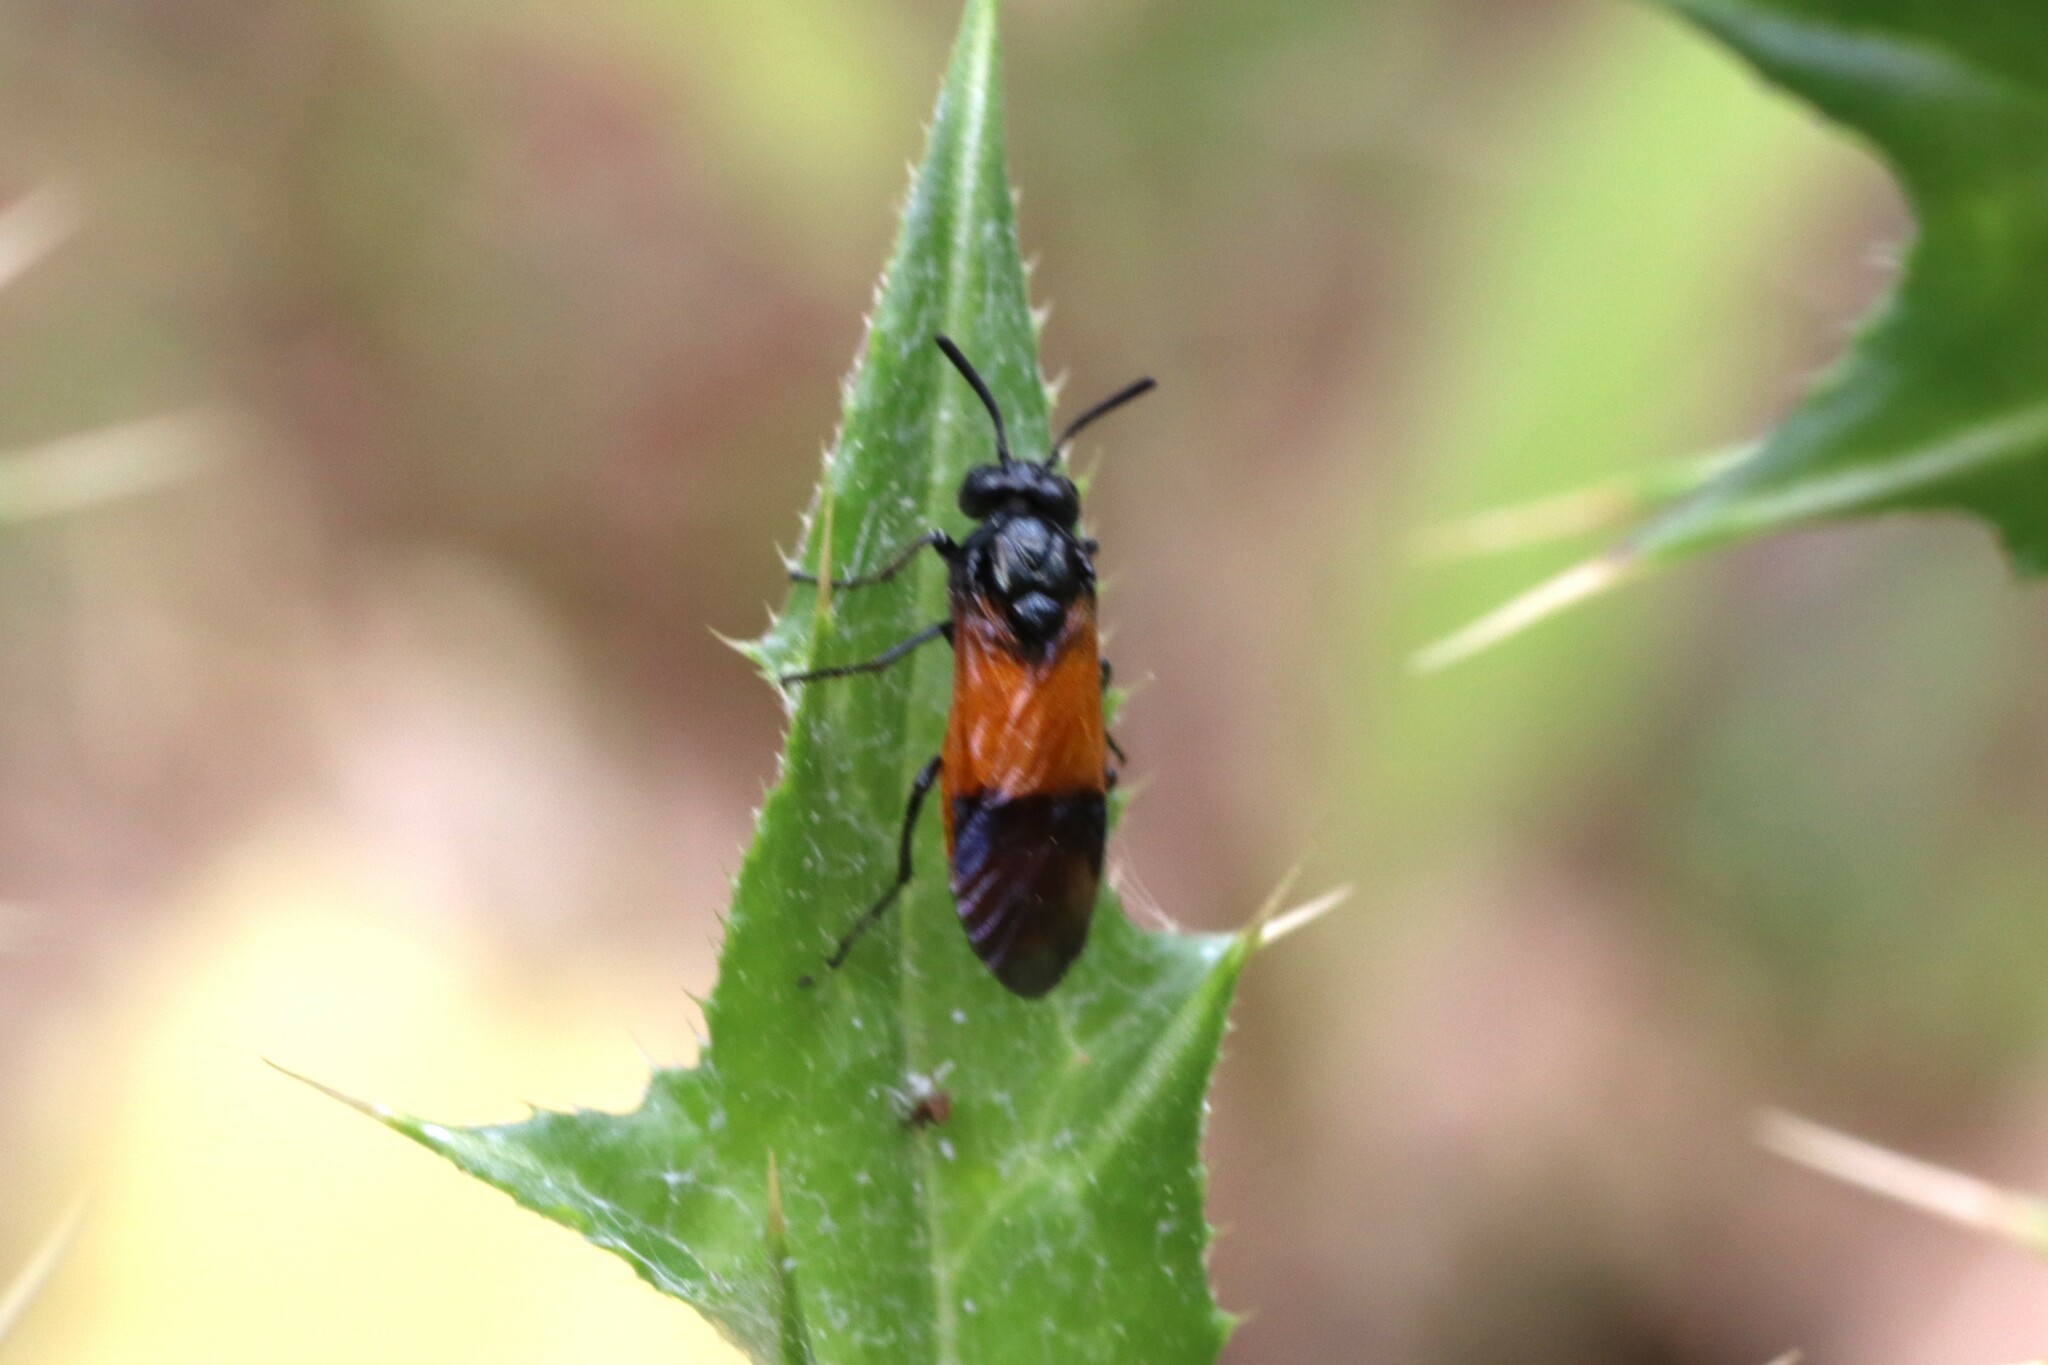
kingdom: Animalia
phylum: Arthropoda
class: Insecta
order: Hymenoptera
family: Argidae
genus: Arge
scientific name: Arge cyanocrocea
